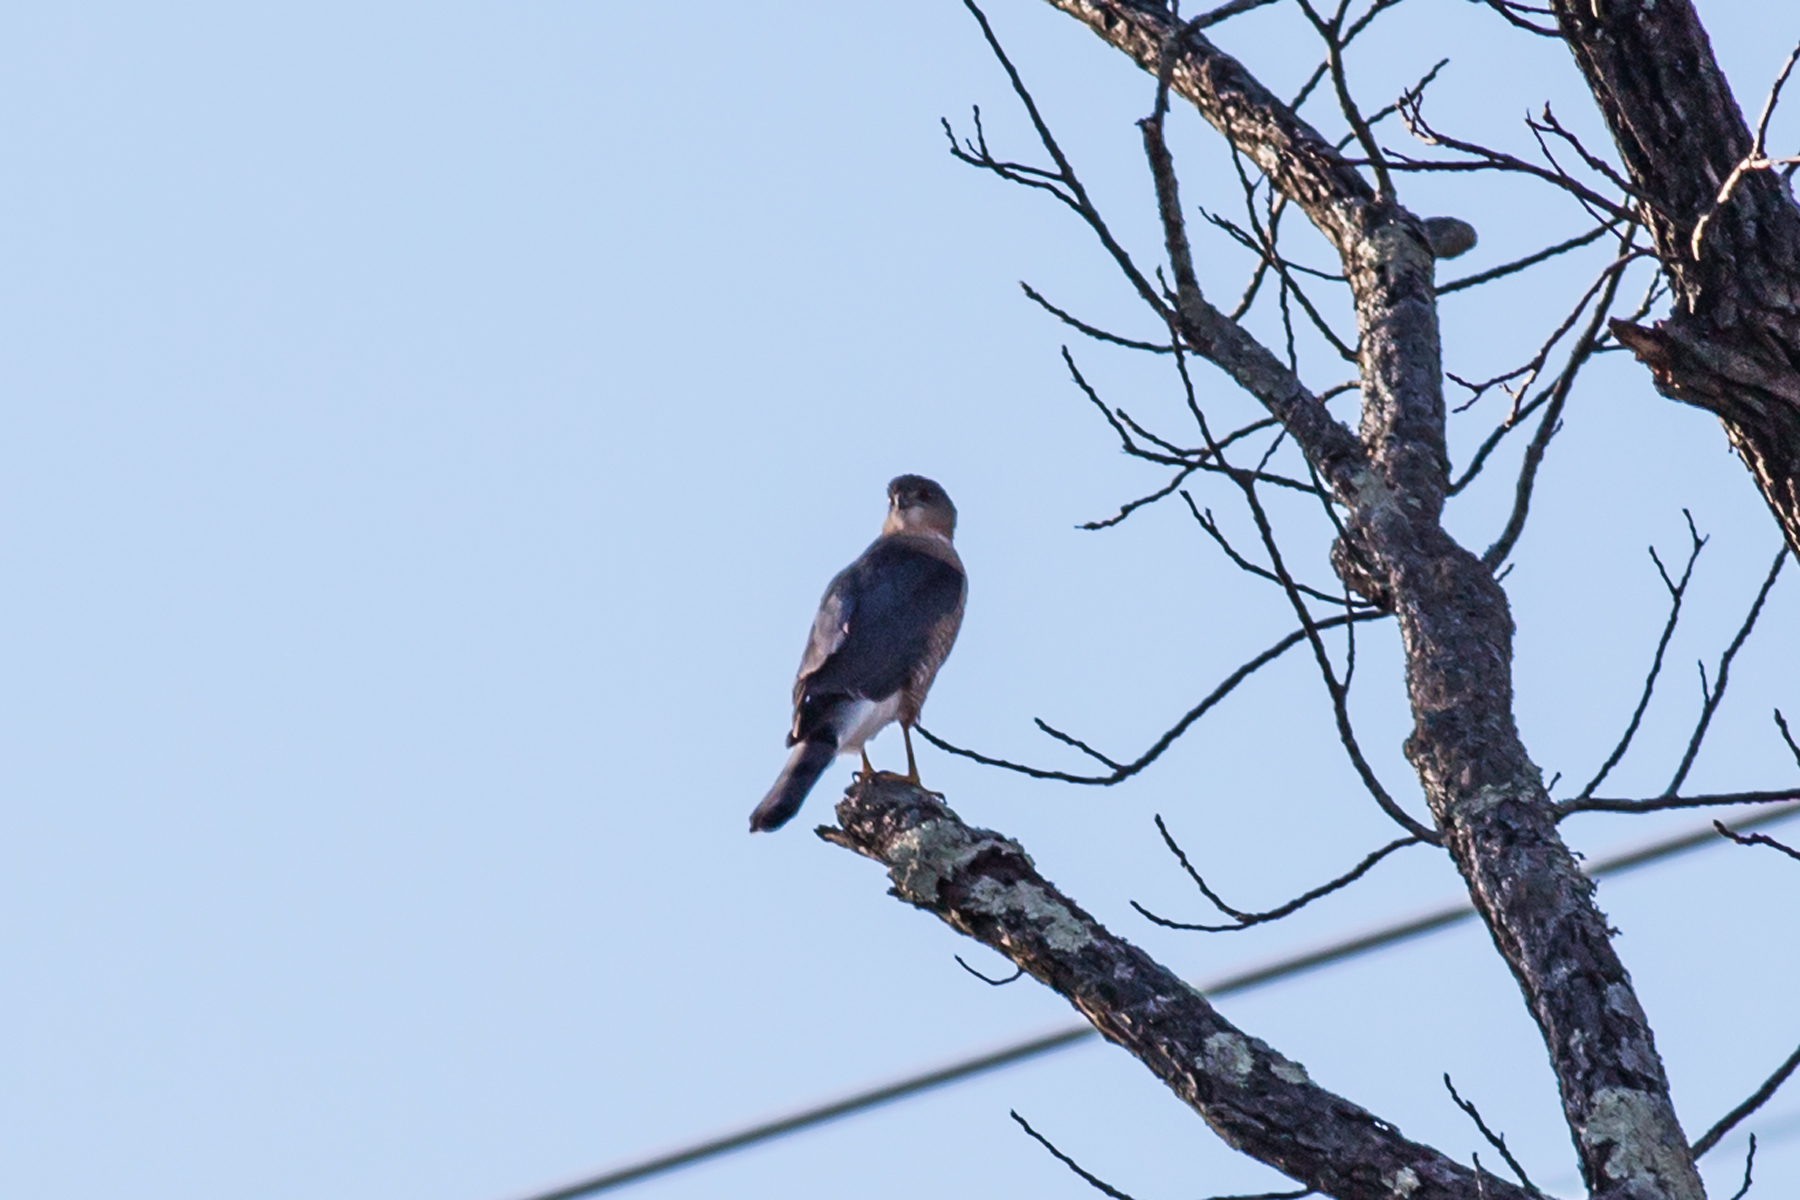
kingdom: Animalia
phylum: Chordata
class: Aves
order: Accipitriformes
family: Accipitridae
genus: Accipiter
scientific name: Accipiter cooperii
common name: Cooper's hawk
